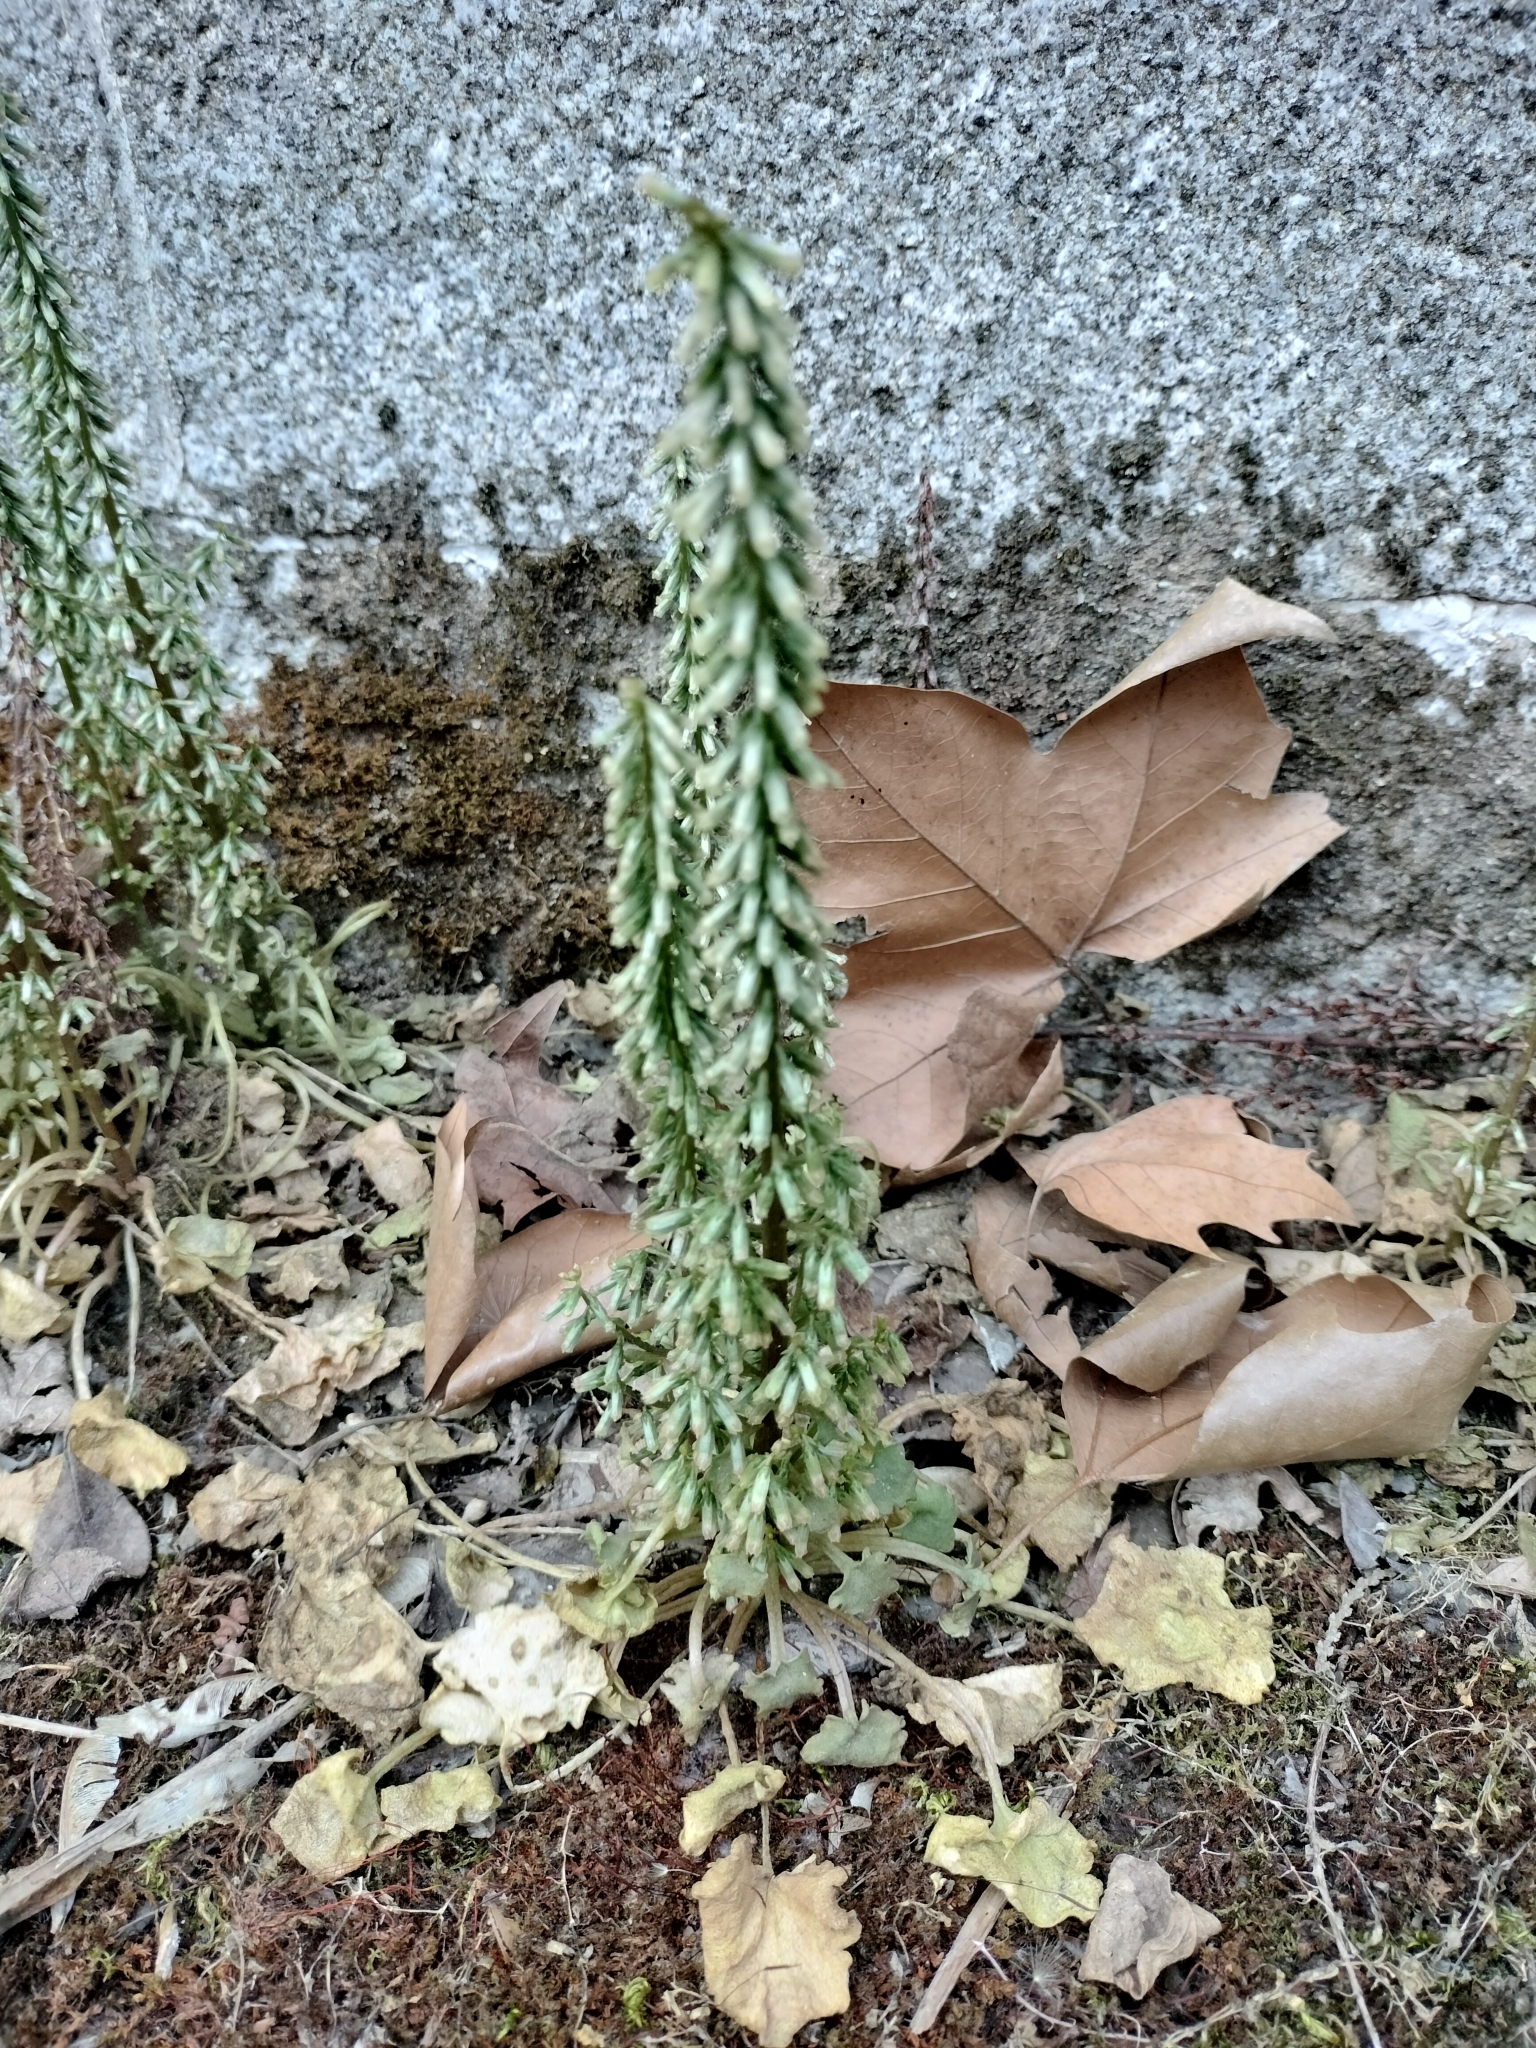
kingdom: Plantae
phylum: Tracheophyta
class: Magnoliopsida
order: Saxifragales
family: Crassulaceae
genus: Umbilicus
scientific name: Umbilicus rupestris
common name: Navelwort
